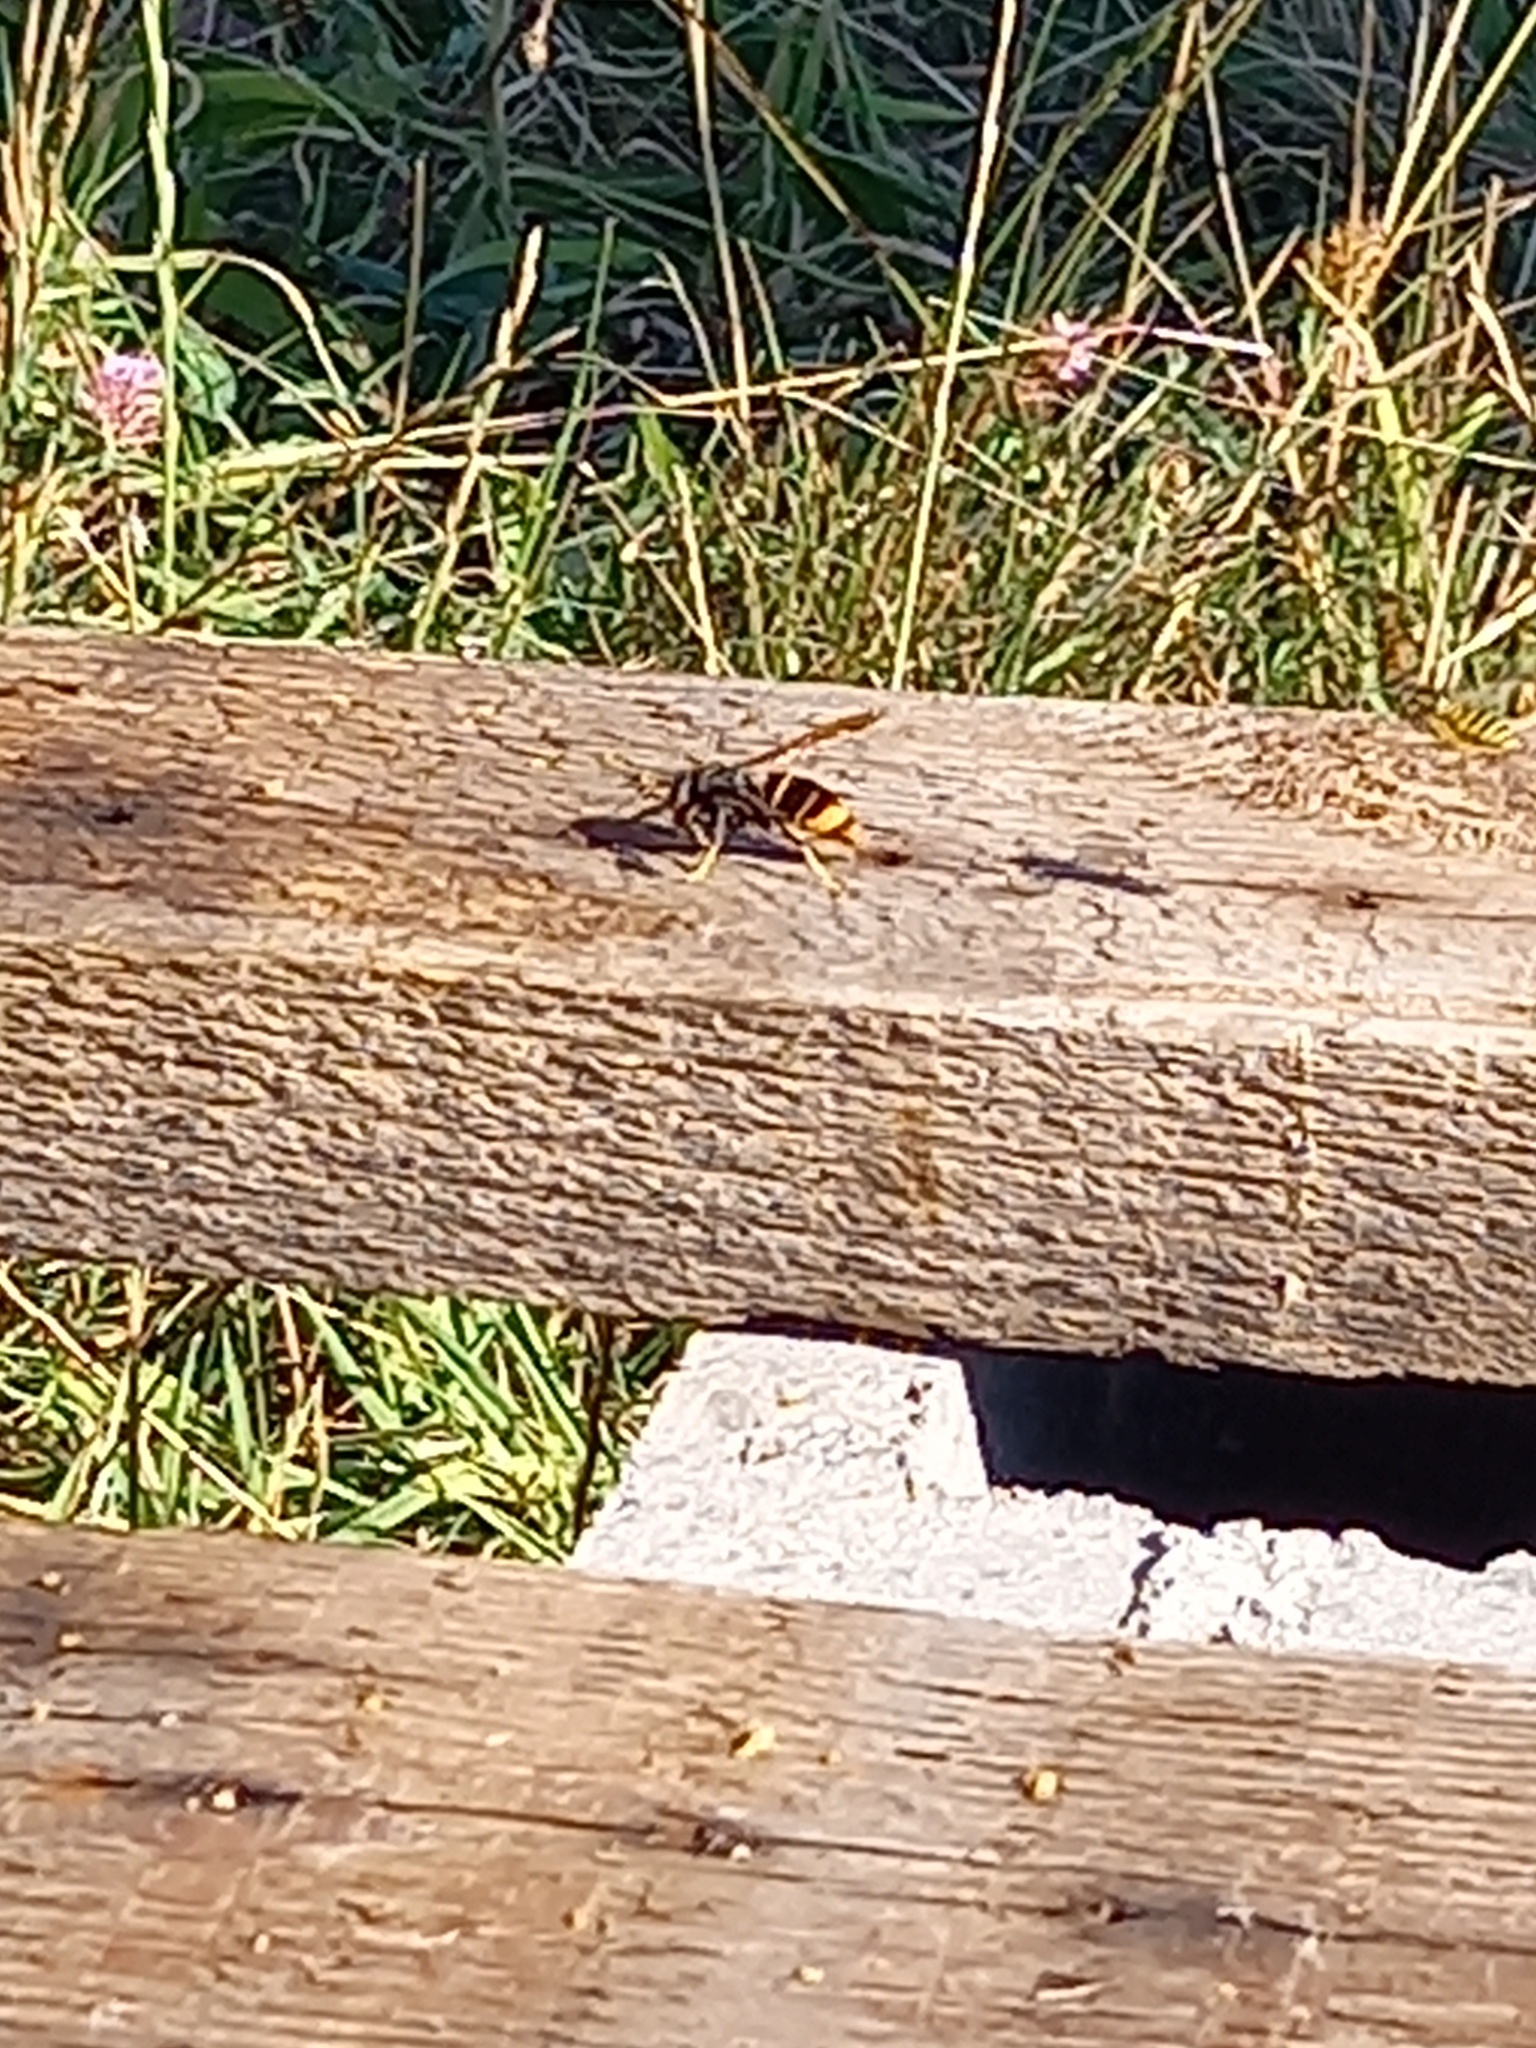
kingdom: Animalia
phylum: Arthropoda
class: Insecta
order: Hymenoptera
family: Vespidae
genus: Vespa
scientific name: Vespa velutina
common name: Asian hornet
